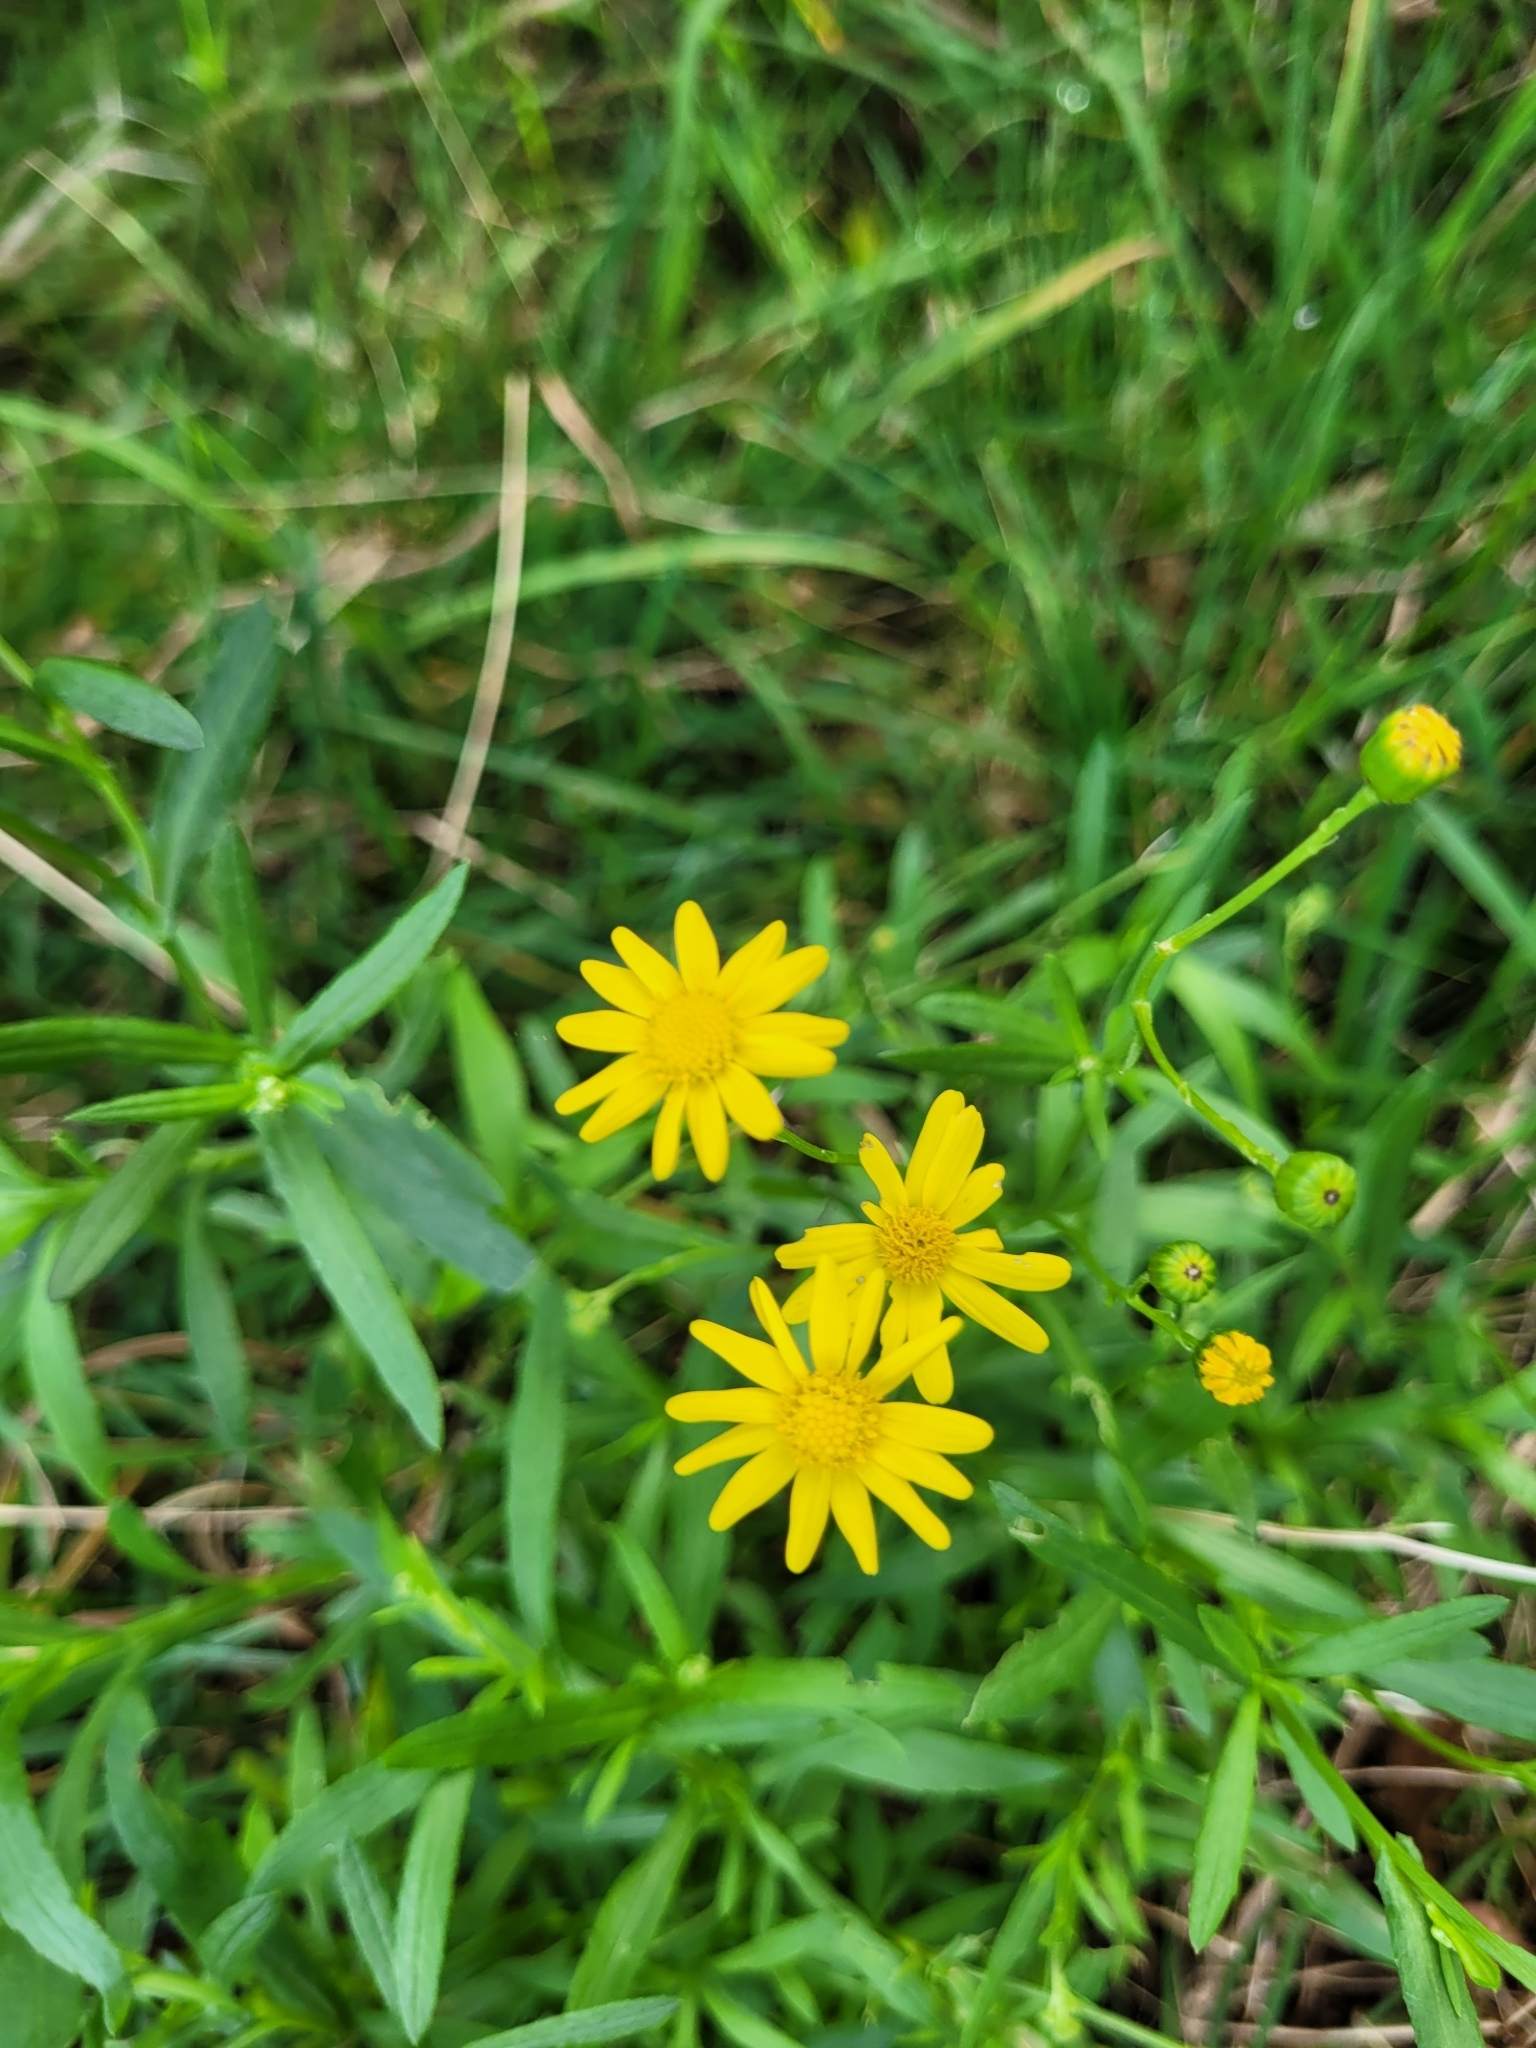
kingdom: Plantae
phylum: Tracheophyta
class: Magnoliopsida
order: Asterales
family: Asteraceae
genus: Senecio
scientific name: Senecio madagascariensis
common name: Madagascar ragwort
